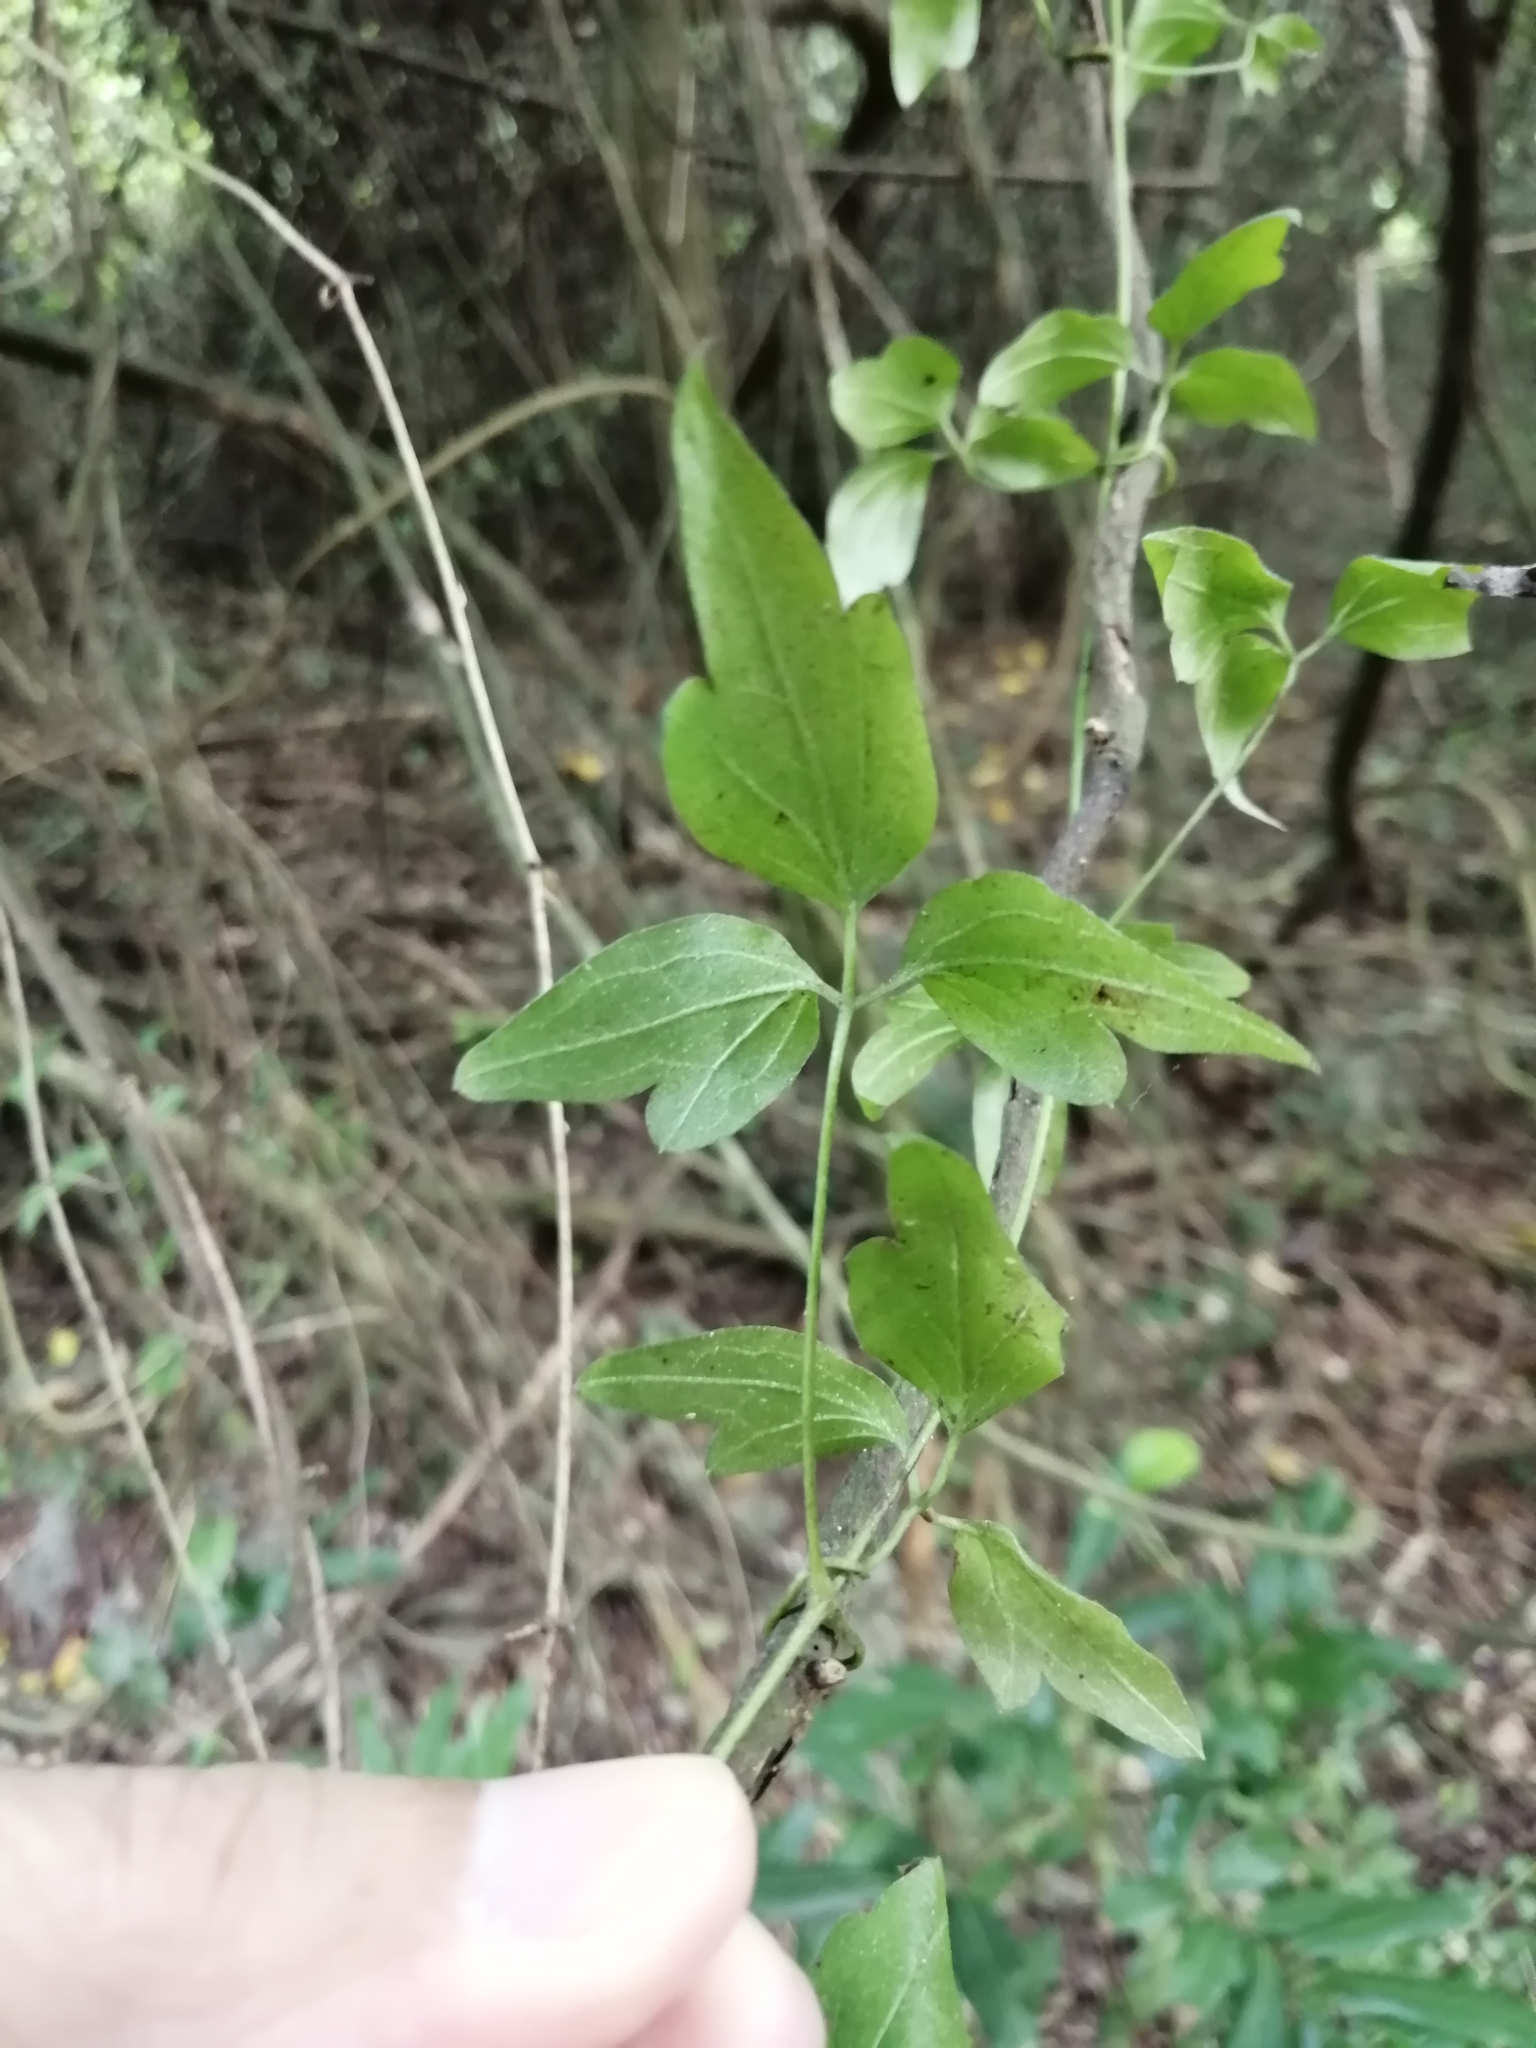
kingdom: Plantae
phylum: Tracheophyta
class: Magnoliopsida
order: Ranunculales
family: Ranunculaceae
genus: Clematis
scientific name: Clematis grata
